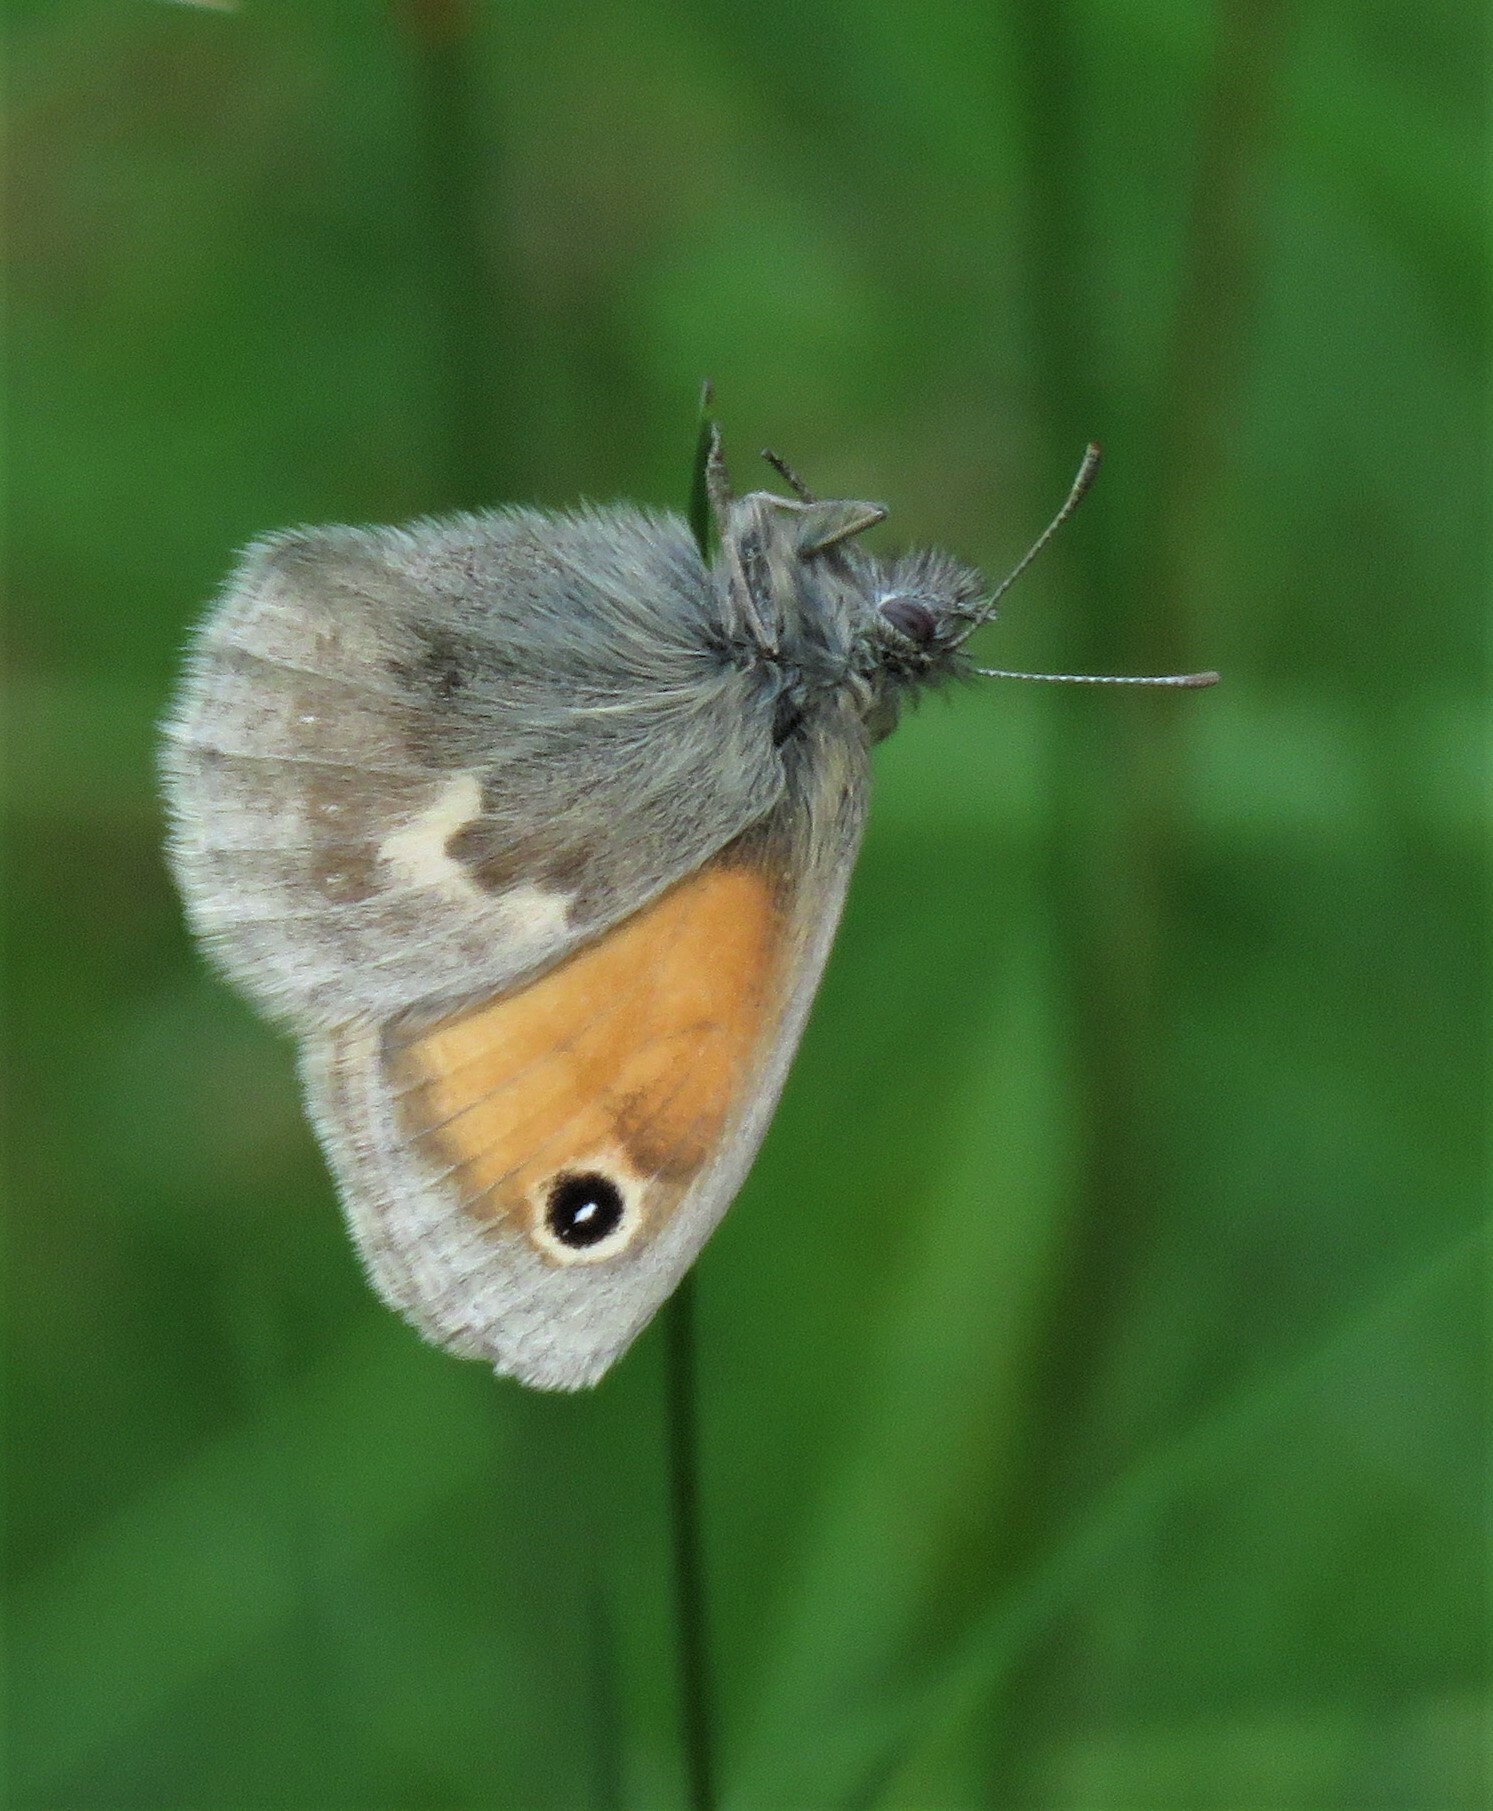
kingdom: Animalia
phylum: Arthropoda
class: Insecta
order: Lepidoptera
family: Nymphalidae
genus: Coenonympha
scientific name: Coenonympha pamphilus
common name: Small heath
